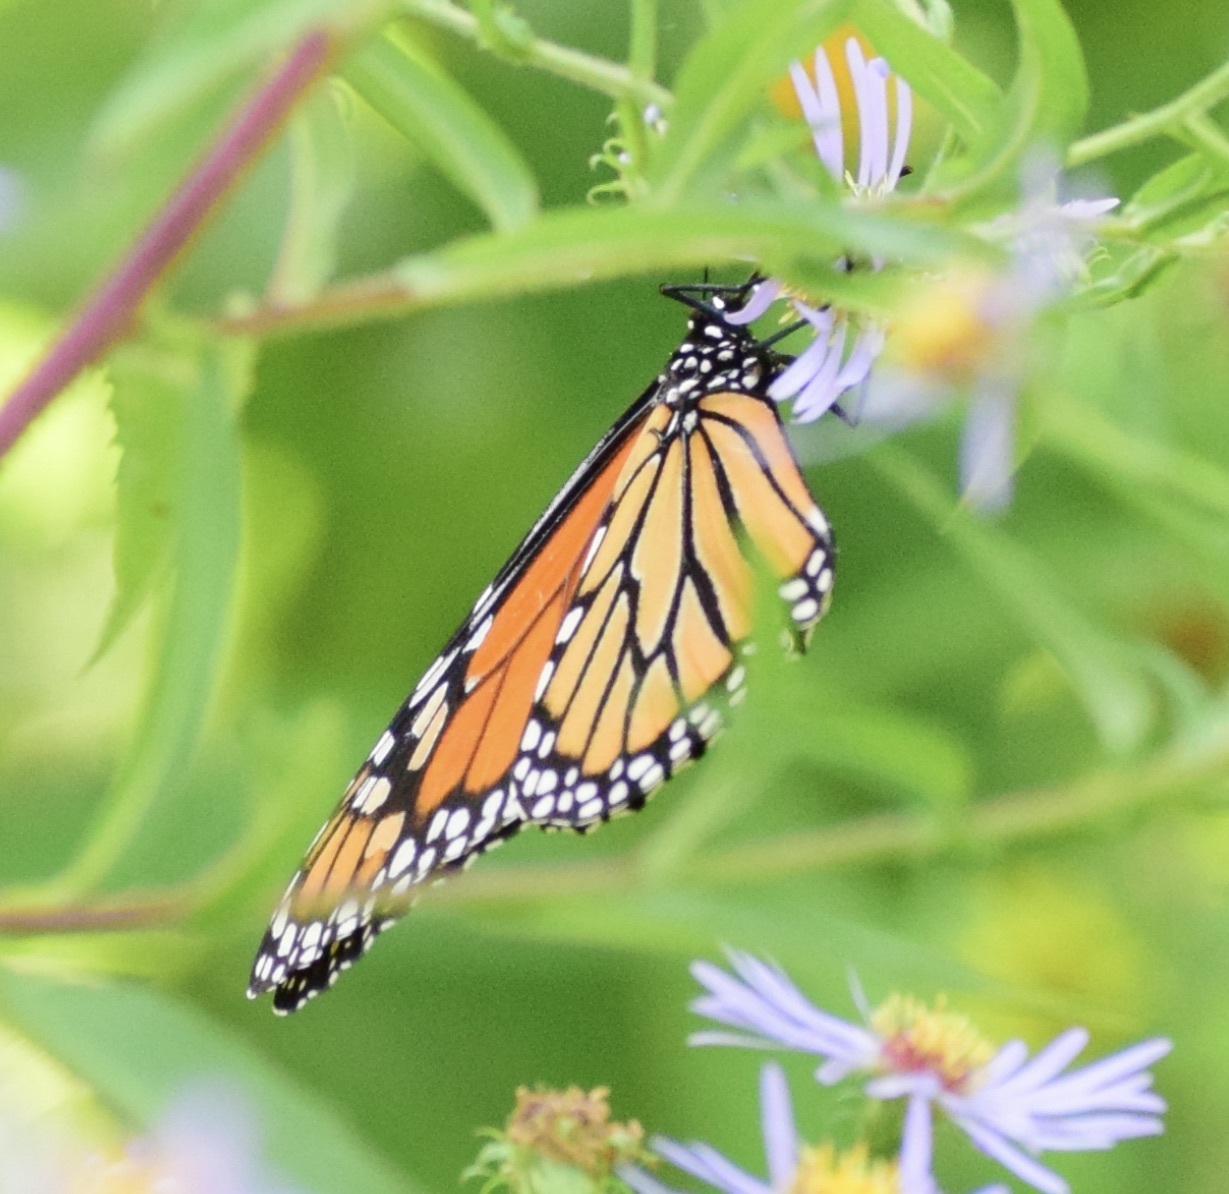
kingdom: Animalia
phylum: Arthropoda
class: Insecta
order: Lepidoptera
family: Nymphalidae
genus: Danaus
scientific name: Danaus plexippus
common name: Monarch
